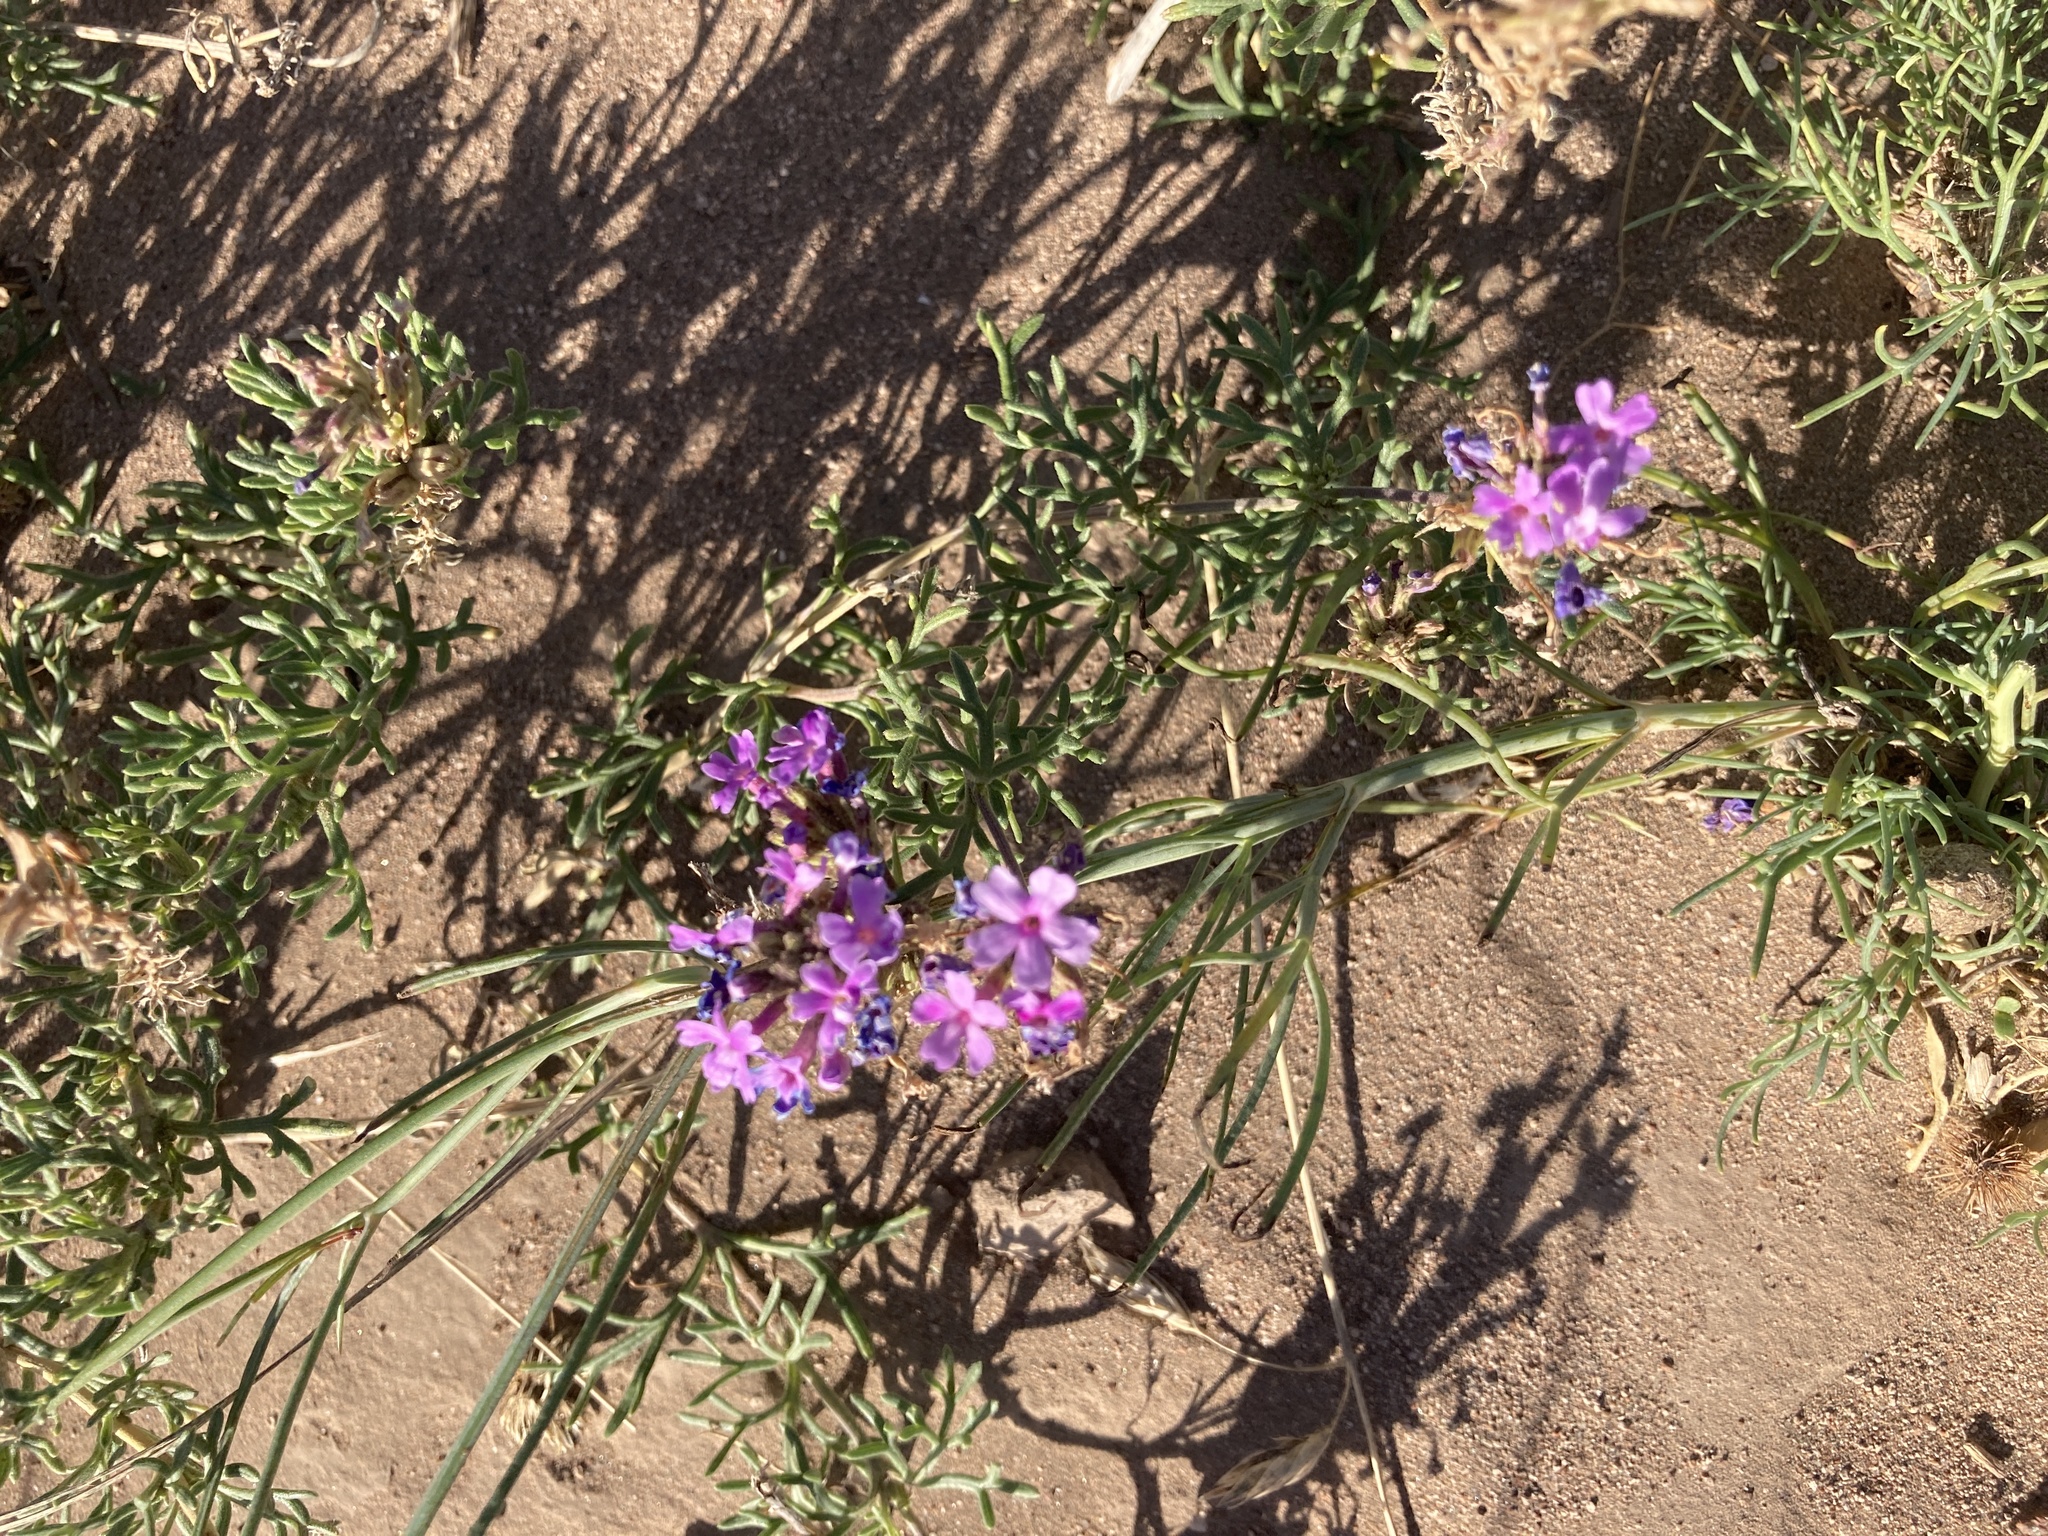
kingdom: Plantae
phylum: Tracheophyta
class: Magnoliopsida
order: Lamiales
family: Verbenaceae
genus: Verbena
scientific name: Verbena parodii
